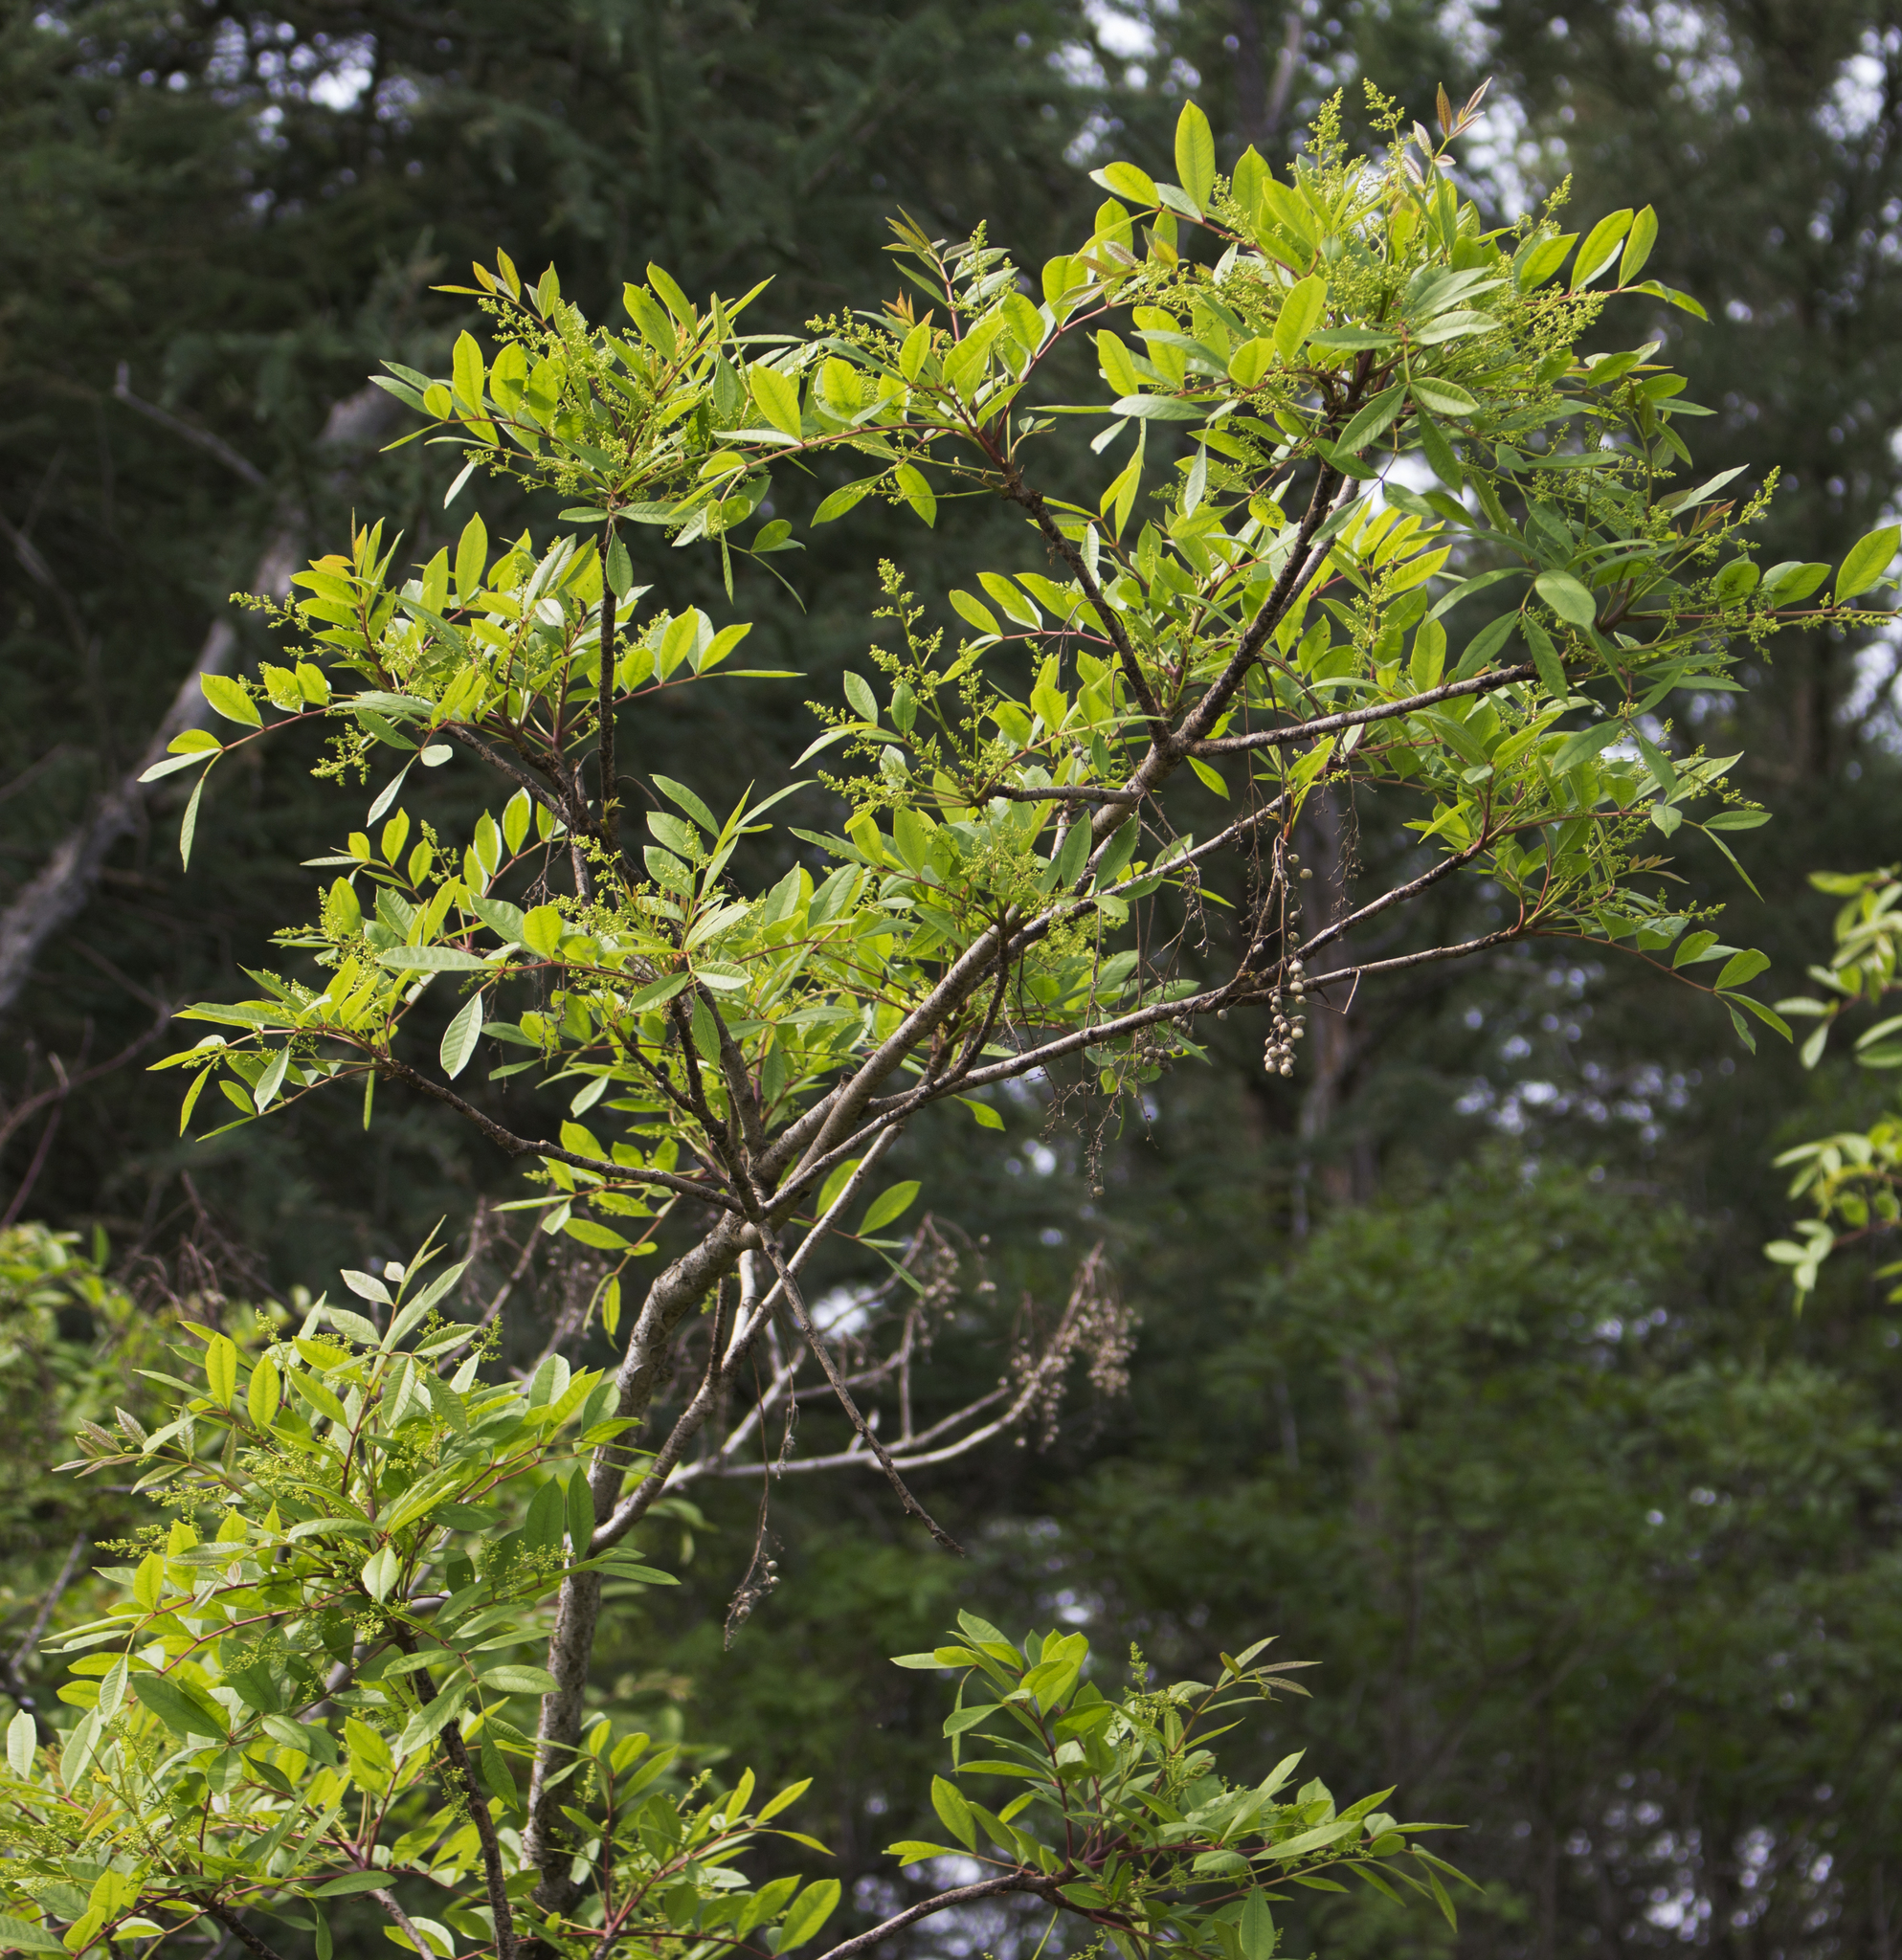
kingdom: Plantae
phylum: Tracheophyta
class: Magnoliopsida
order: Sapindales
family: Anacardiaceae
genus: Toxicodendron
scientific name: Toxicodendron vernix
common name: Poison sumac
